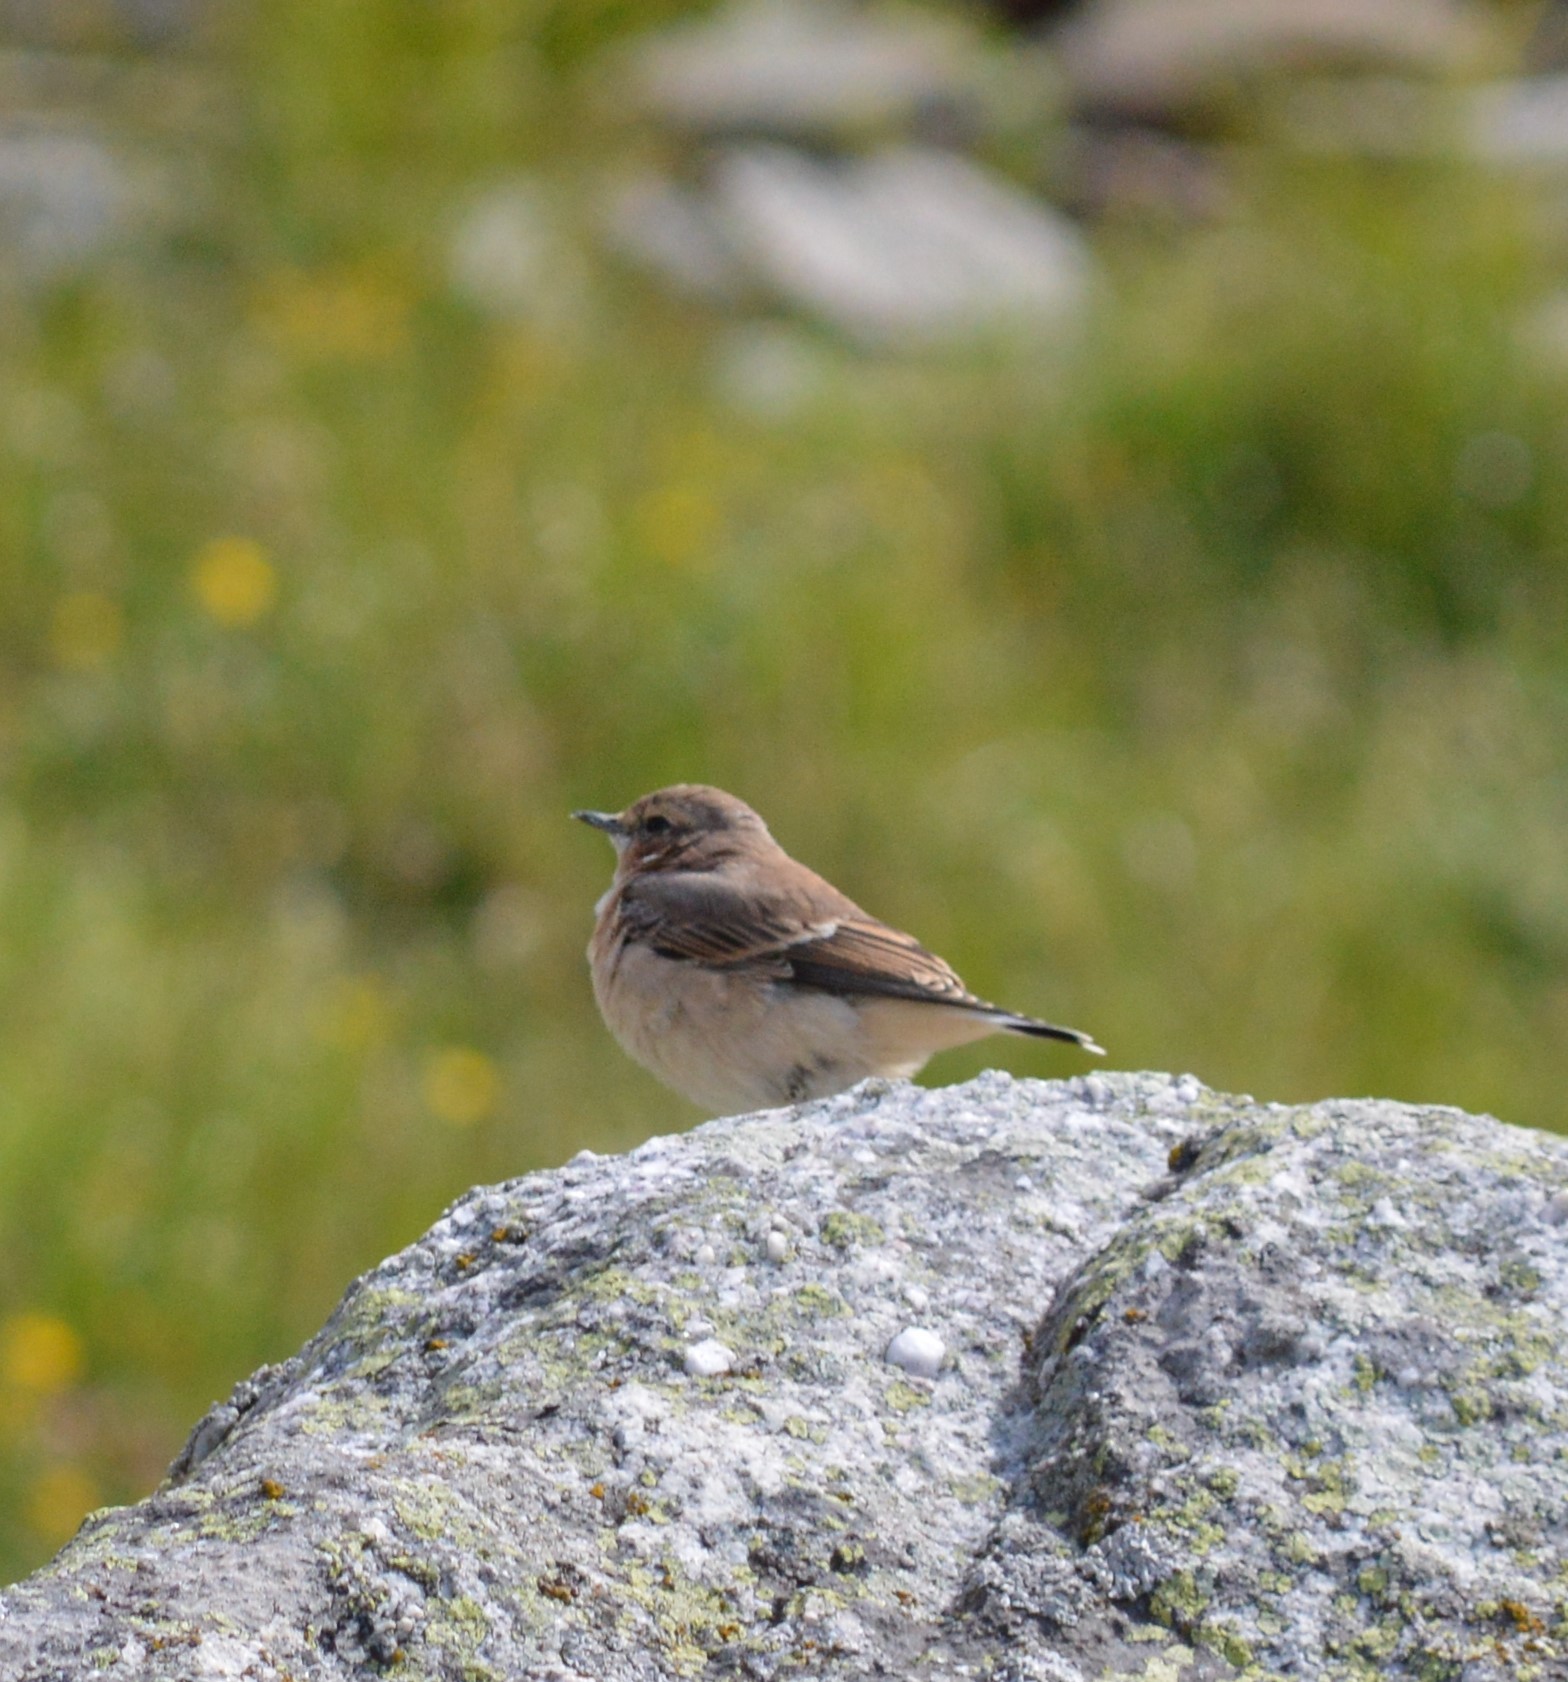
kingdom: Animalia
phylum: Chordata
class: Aves
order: Passeriformes
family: Muscicapidae
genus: Oenanthe
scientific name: Oenanthe oenanthe
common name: Northern wheatear
